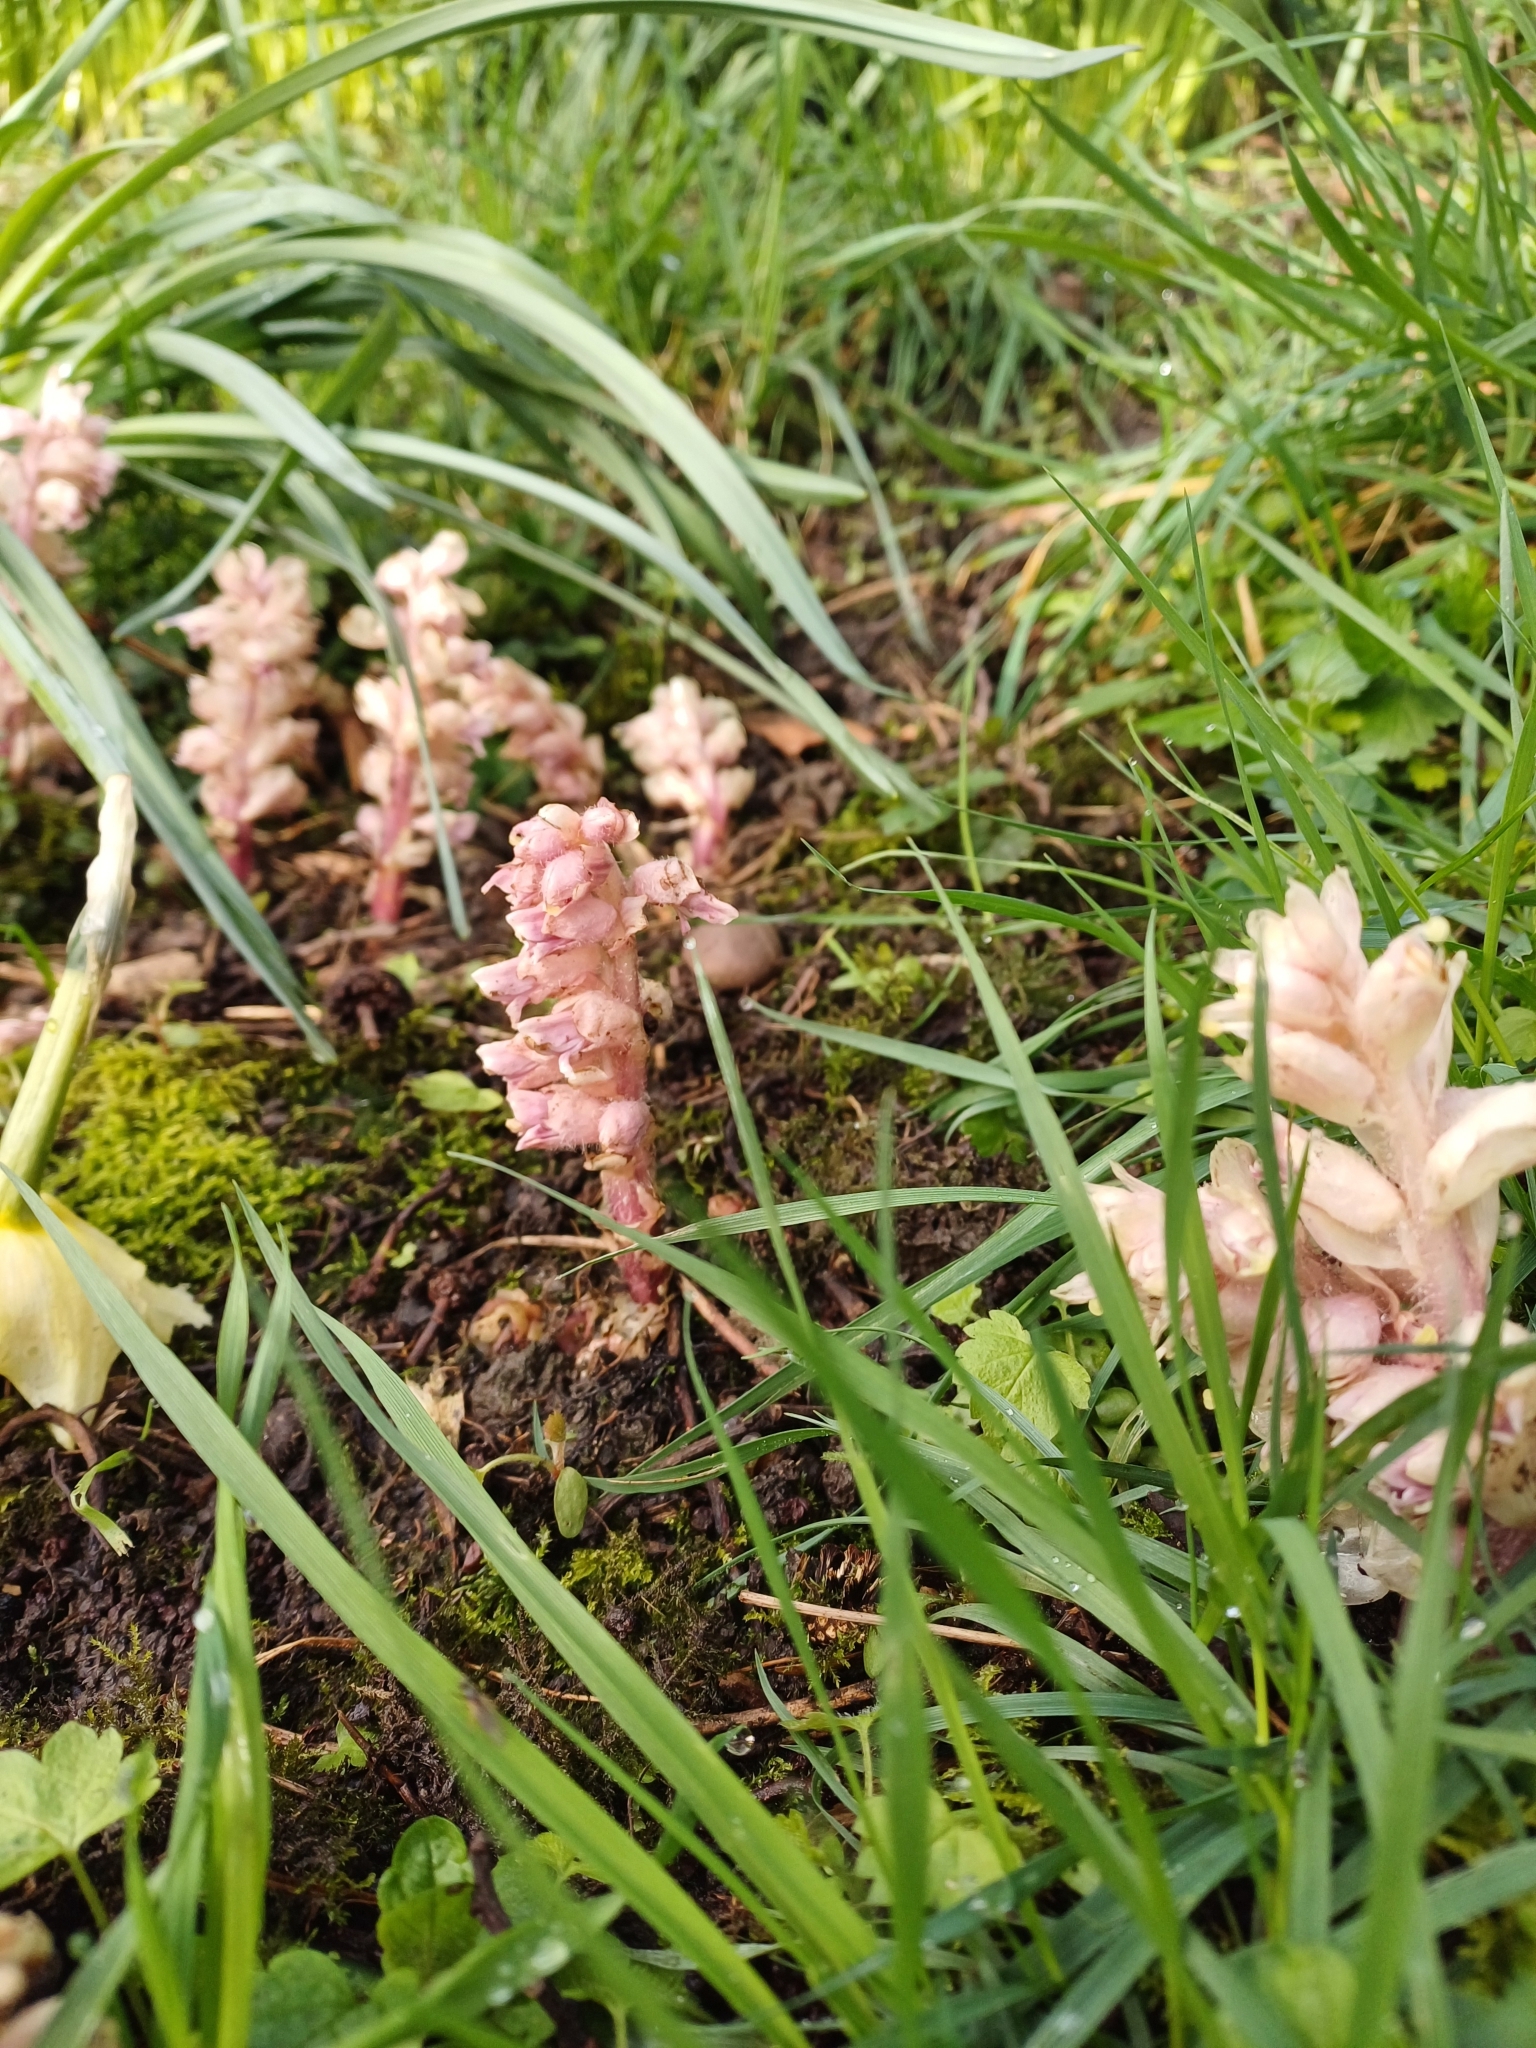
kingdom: Plantae
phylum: Tracheophyta
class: Magnoliopsida
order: Lamiales
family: Orobanchaceae
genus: Lathraea
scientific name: Lathraea squamaria
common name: Toothwort
